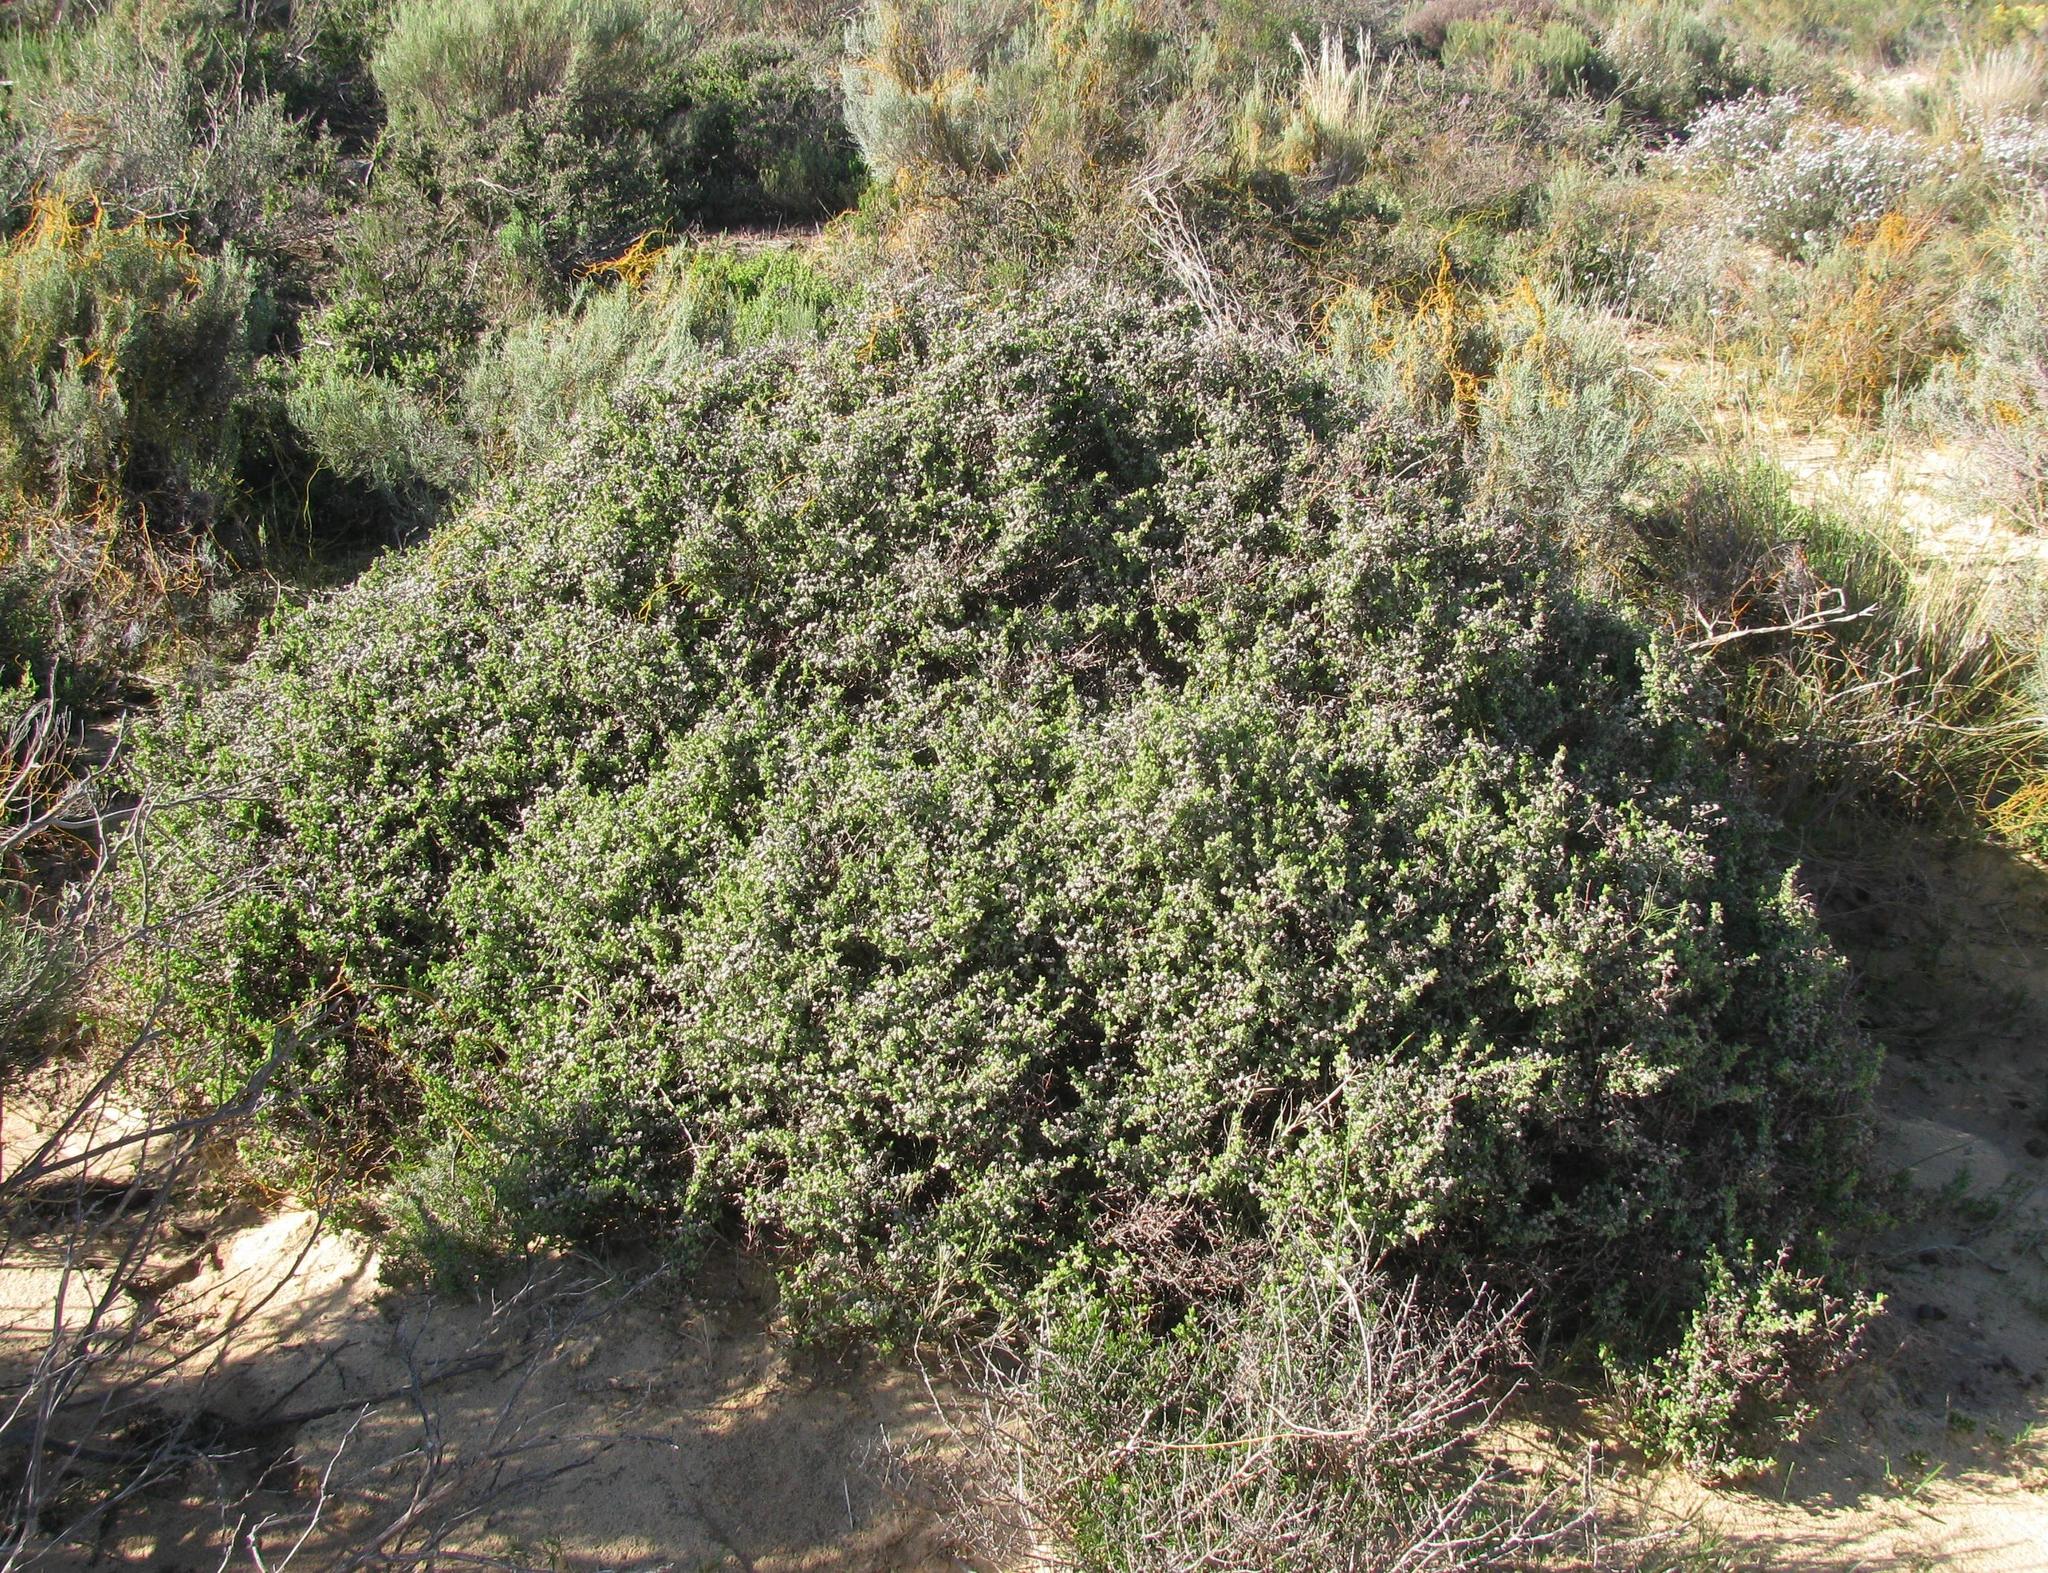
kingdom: Plantae
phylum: Tracheophyta
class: Magnoliopsida
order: Caryophyllales
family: Aizoaceae
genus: Drosanthemum
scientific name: Drosanthemum parvifolium
